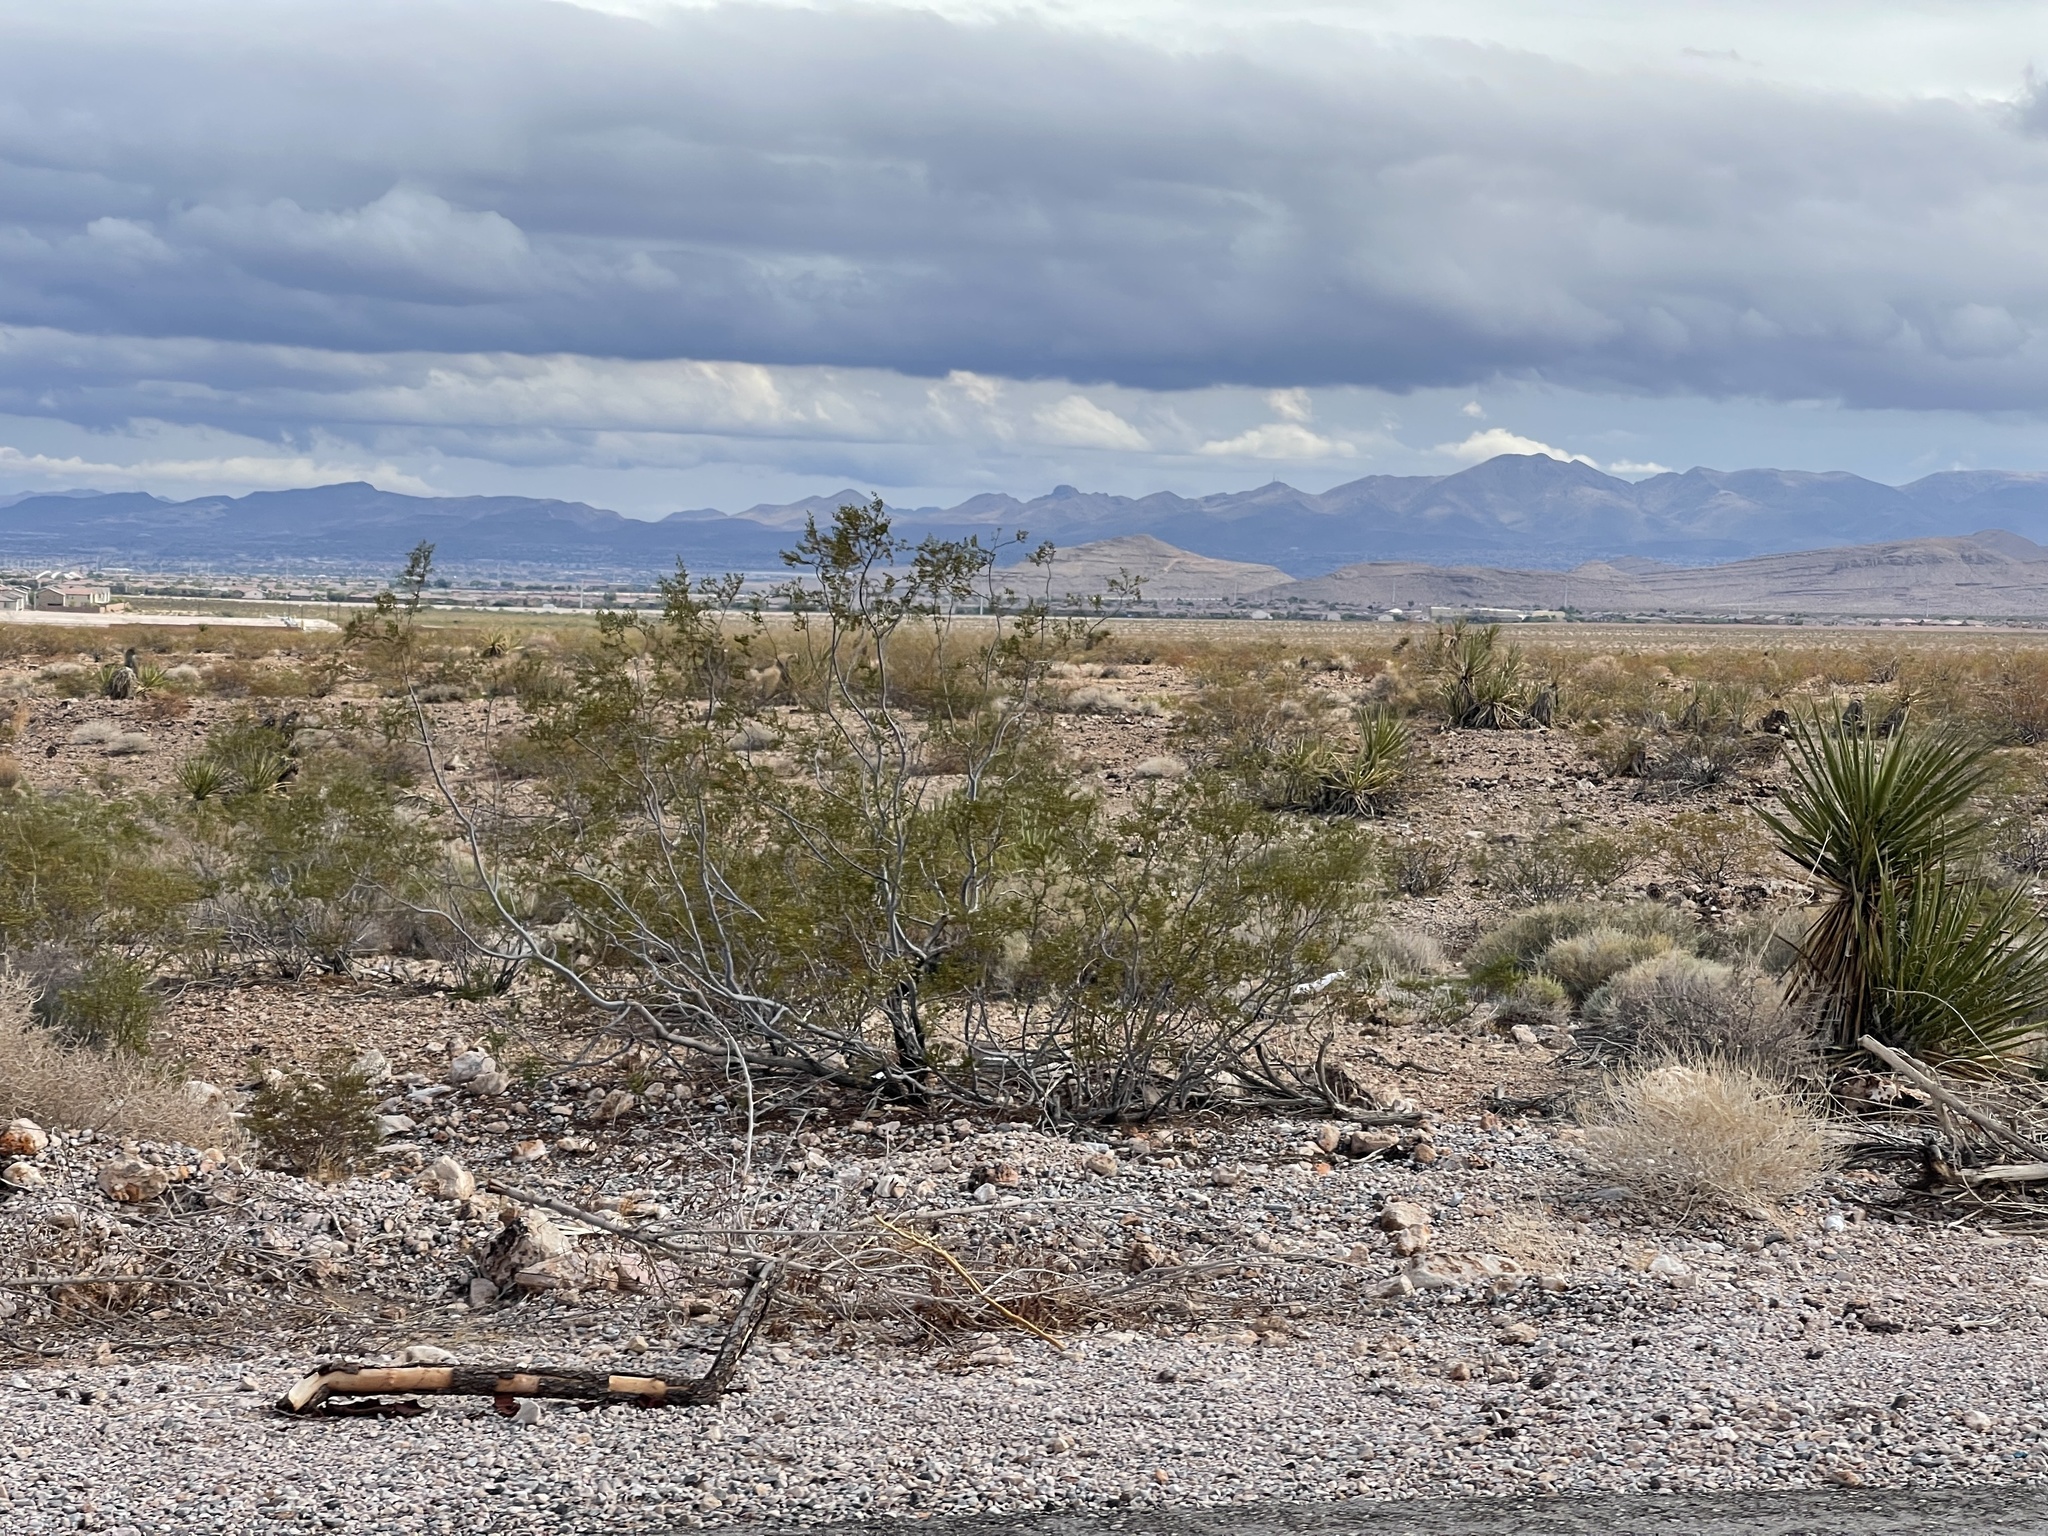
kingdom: Plantae
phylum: Tracheophyta
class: Magnoliopsida
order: Zygophyllales
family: Zygophyllaceae
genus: Larrea
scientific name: Larrea tridentata
